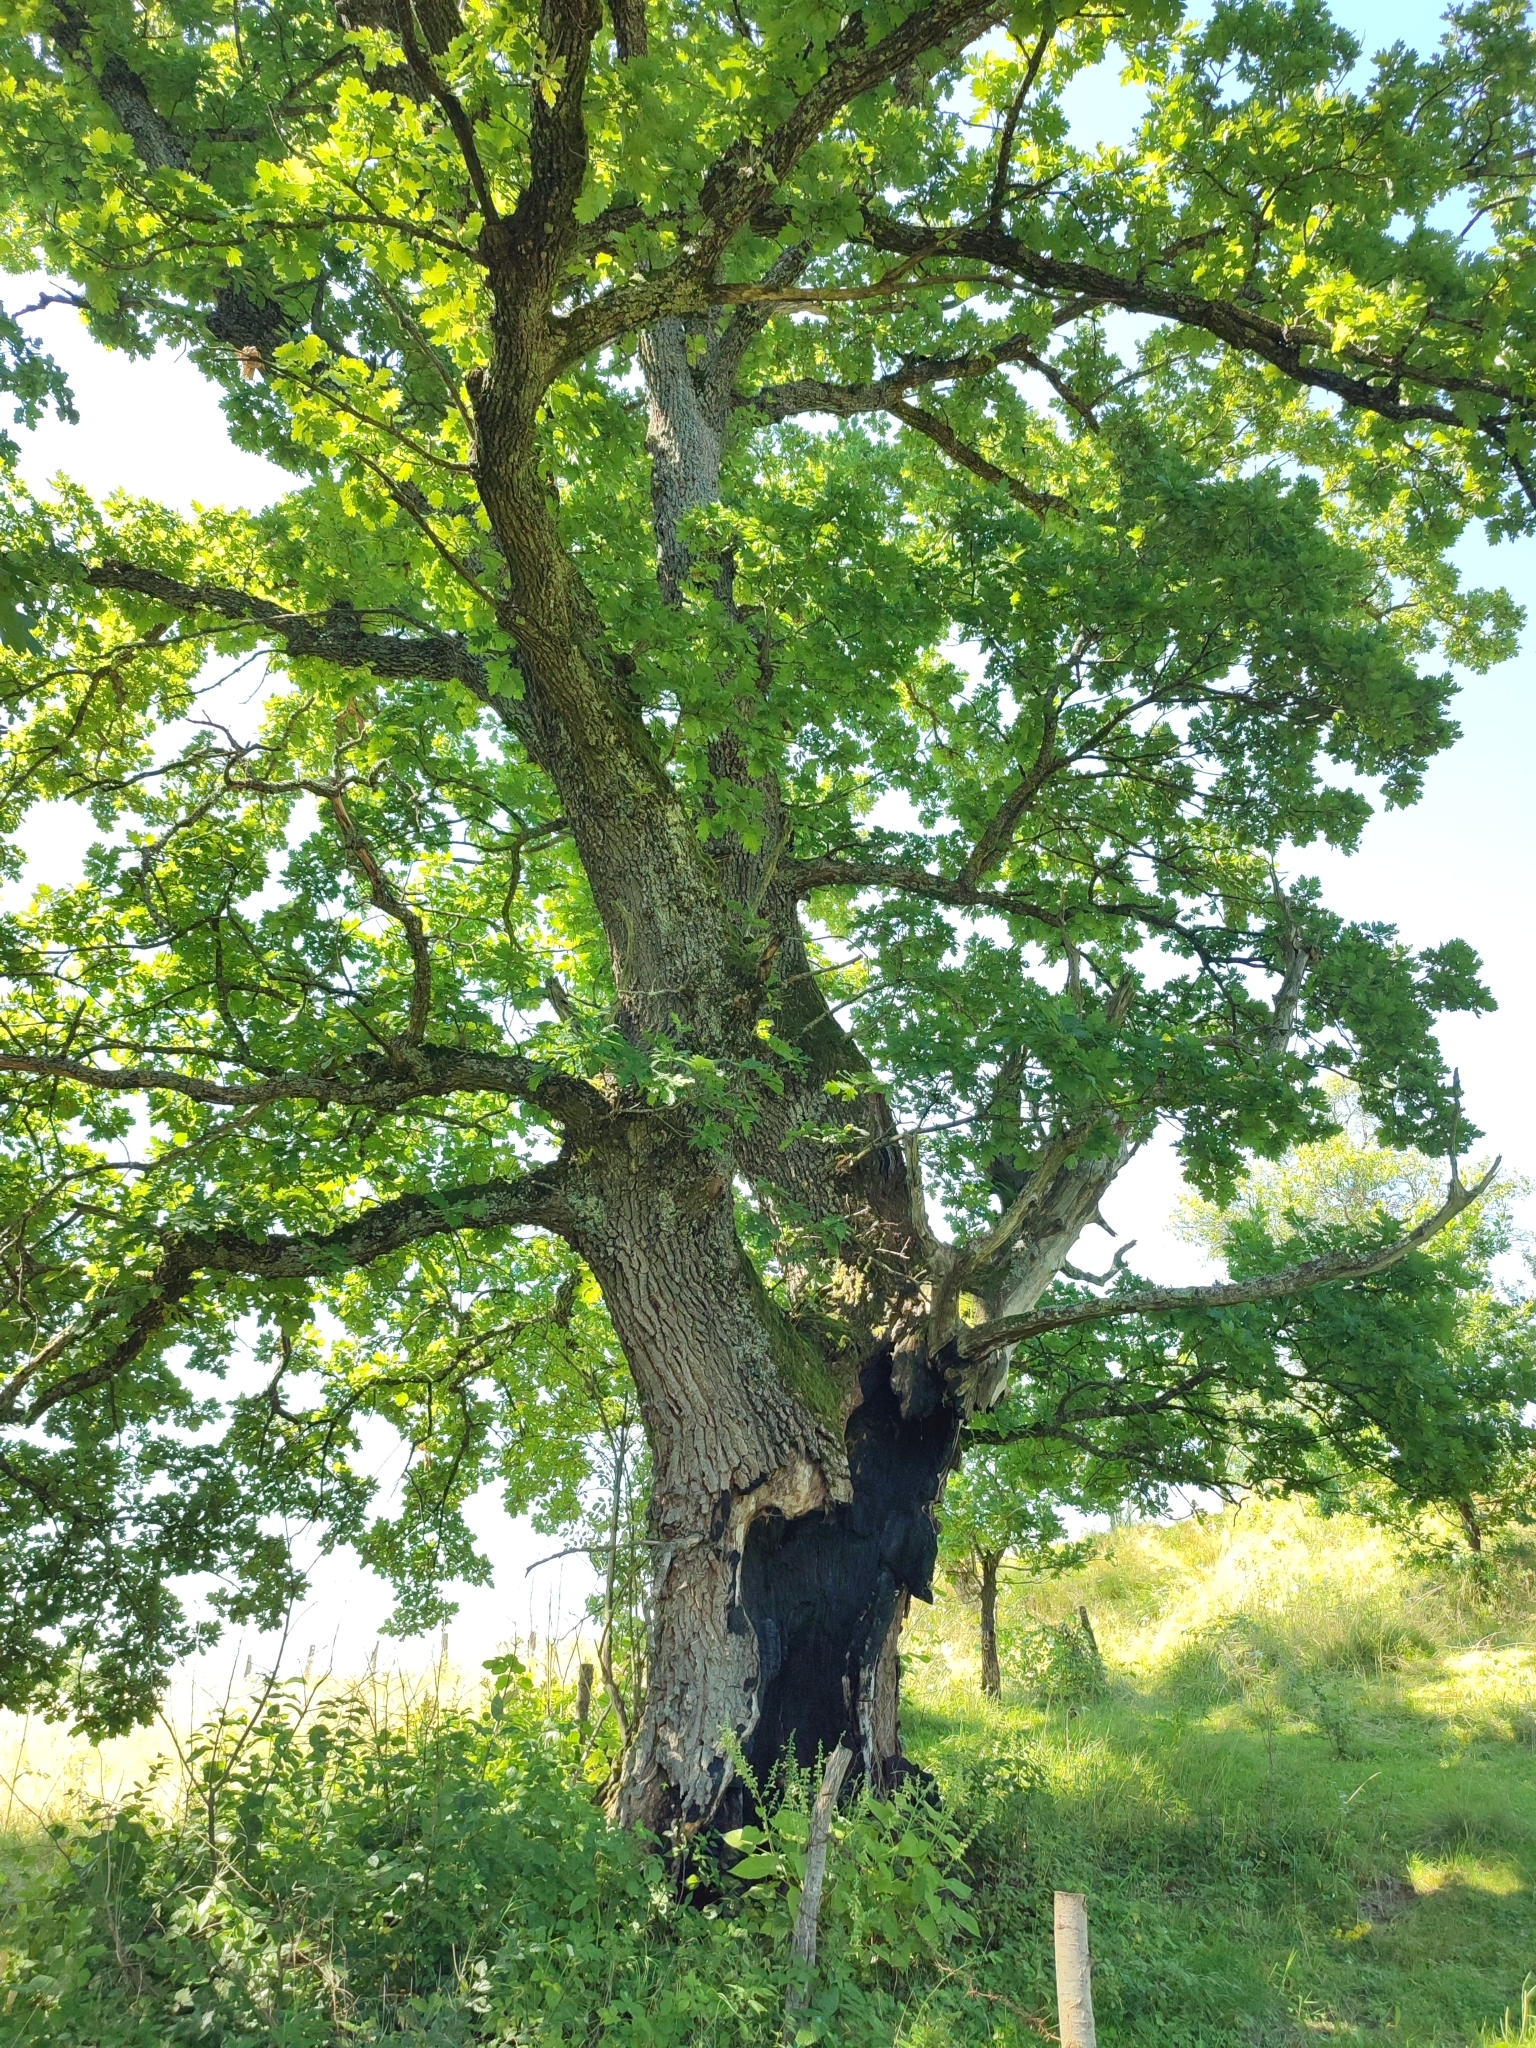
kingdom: Plantae
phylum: Tracheophyta
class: Magnoliopsida
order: Fagales
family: Fagaceae
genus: Quercus
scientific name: Quercus robur
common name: Pedunculate oak
